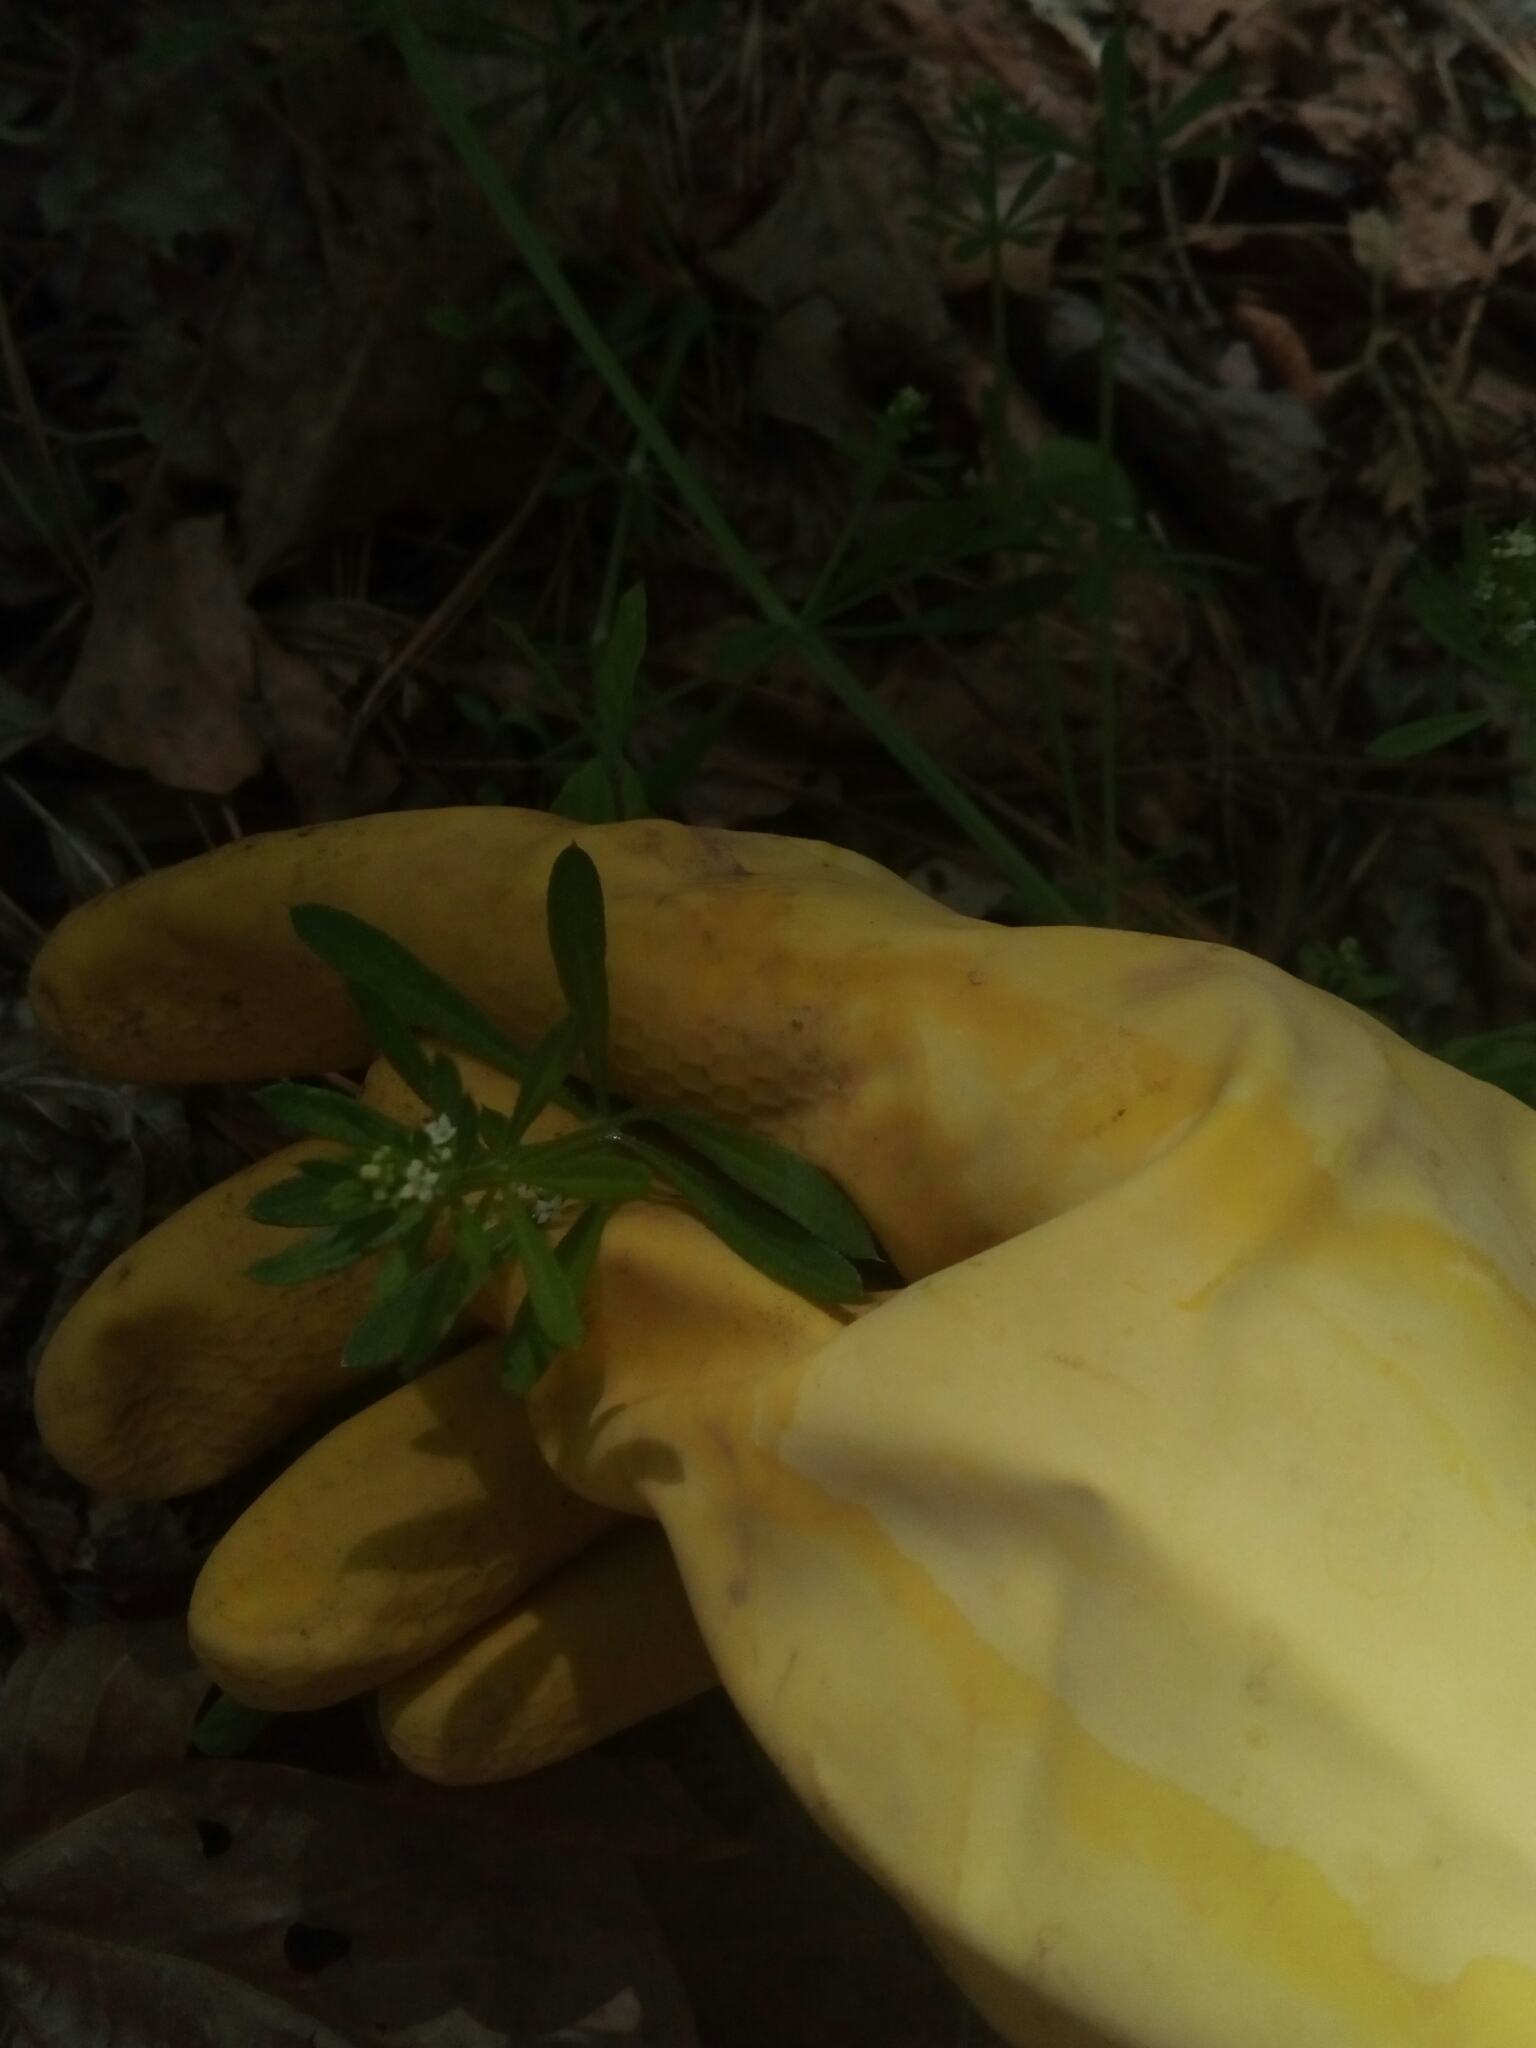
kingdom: Plantae
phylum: Tracheophyta
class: Magnoliopsida
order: Gentianales
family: Rubiaceae
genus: Galium
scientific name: Galium aparine
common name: Cleavers
